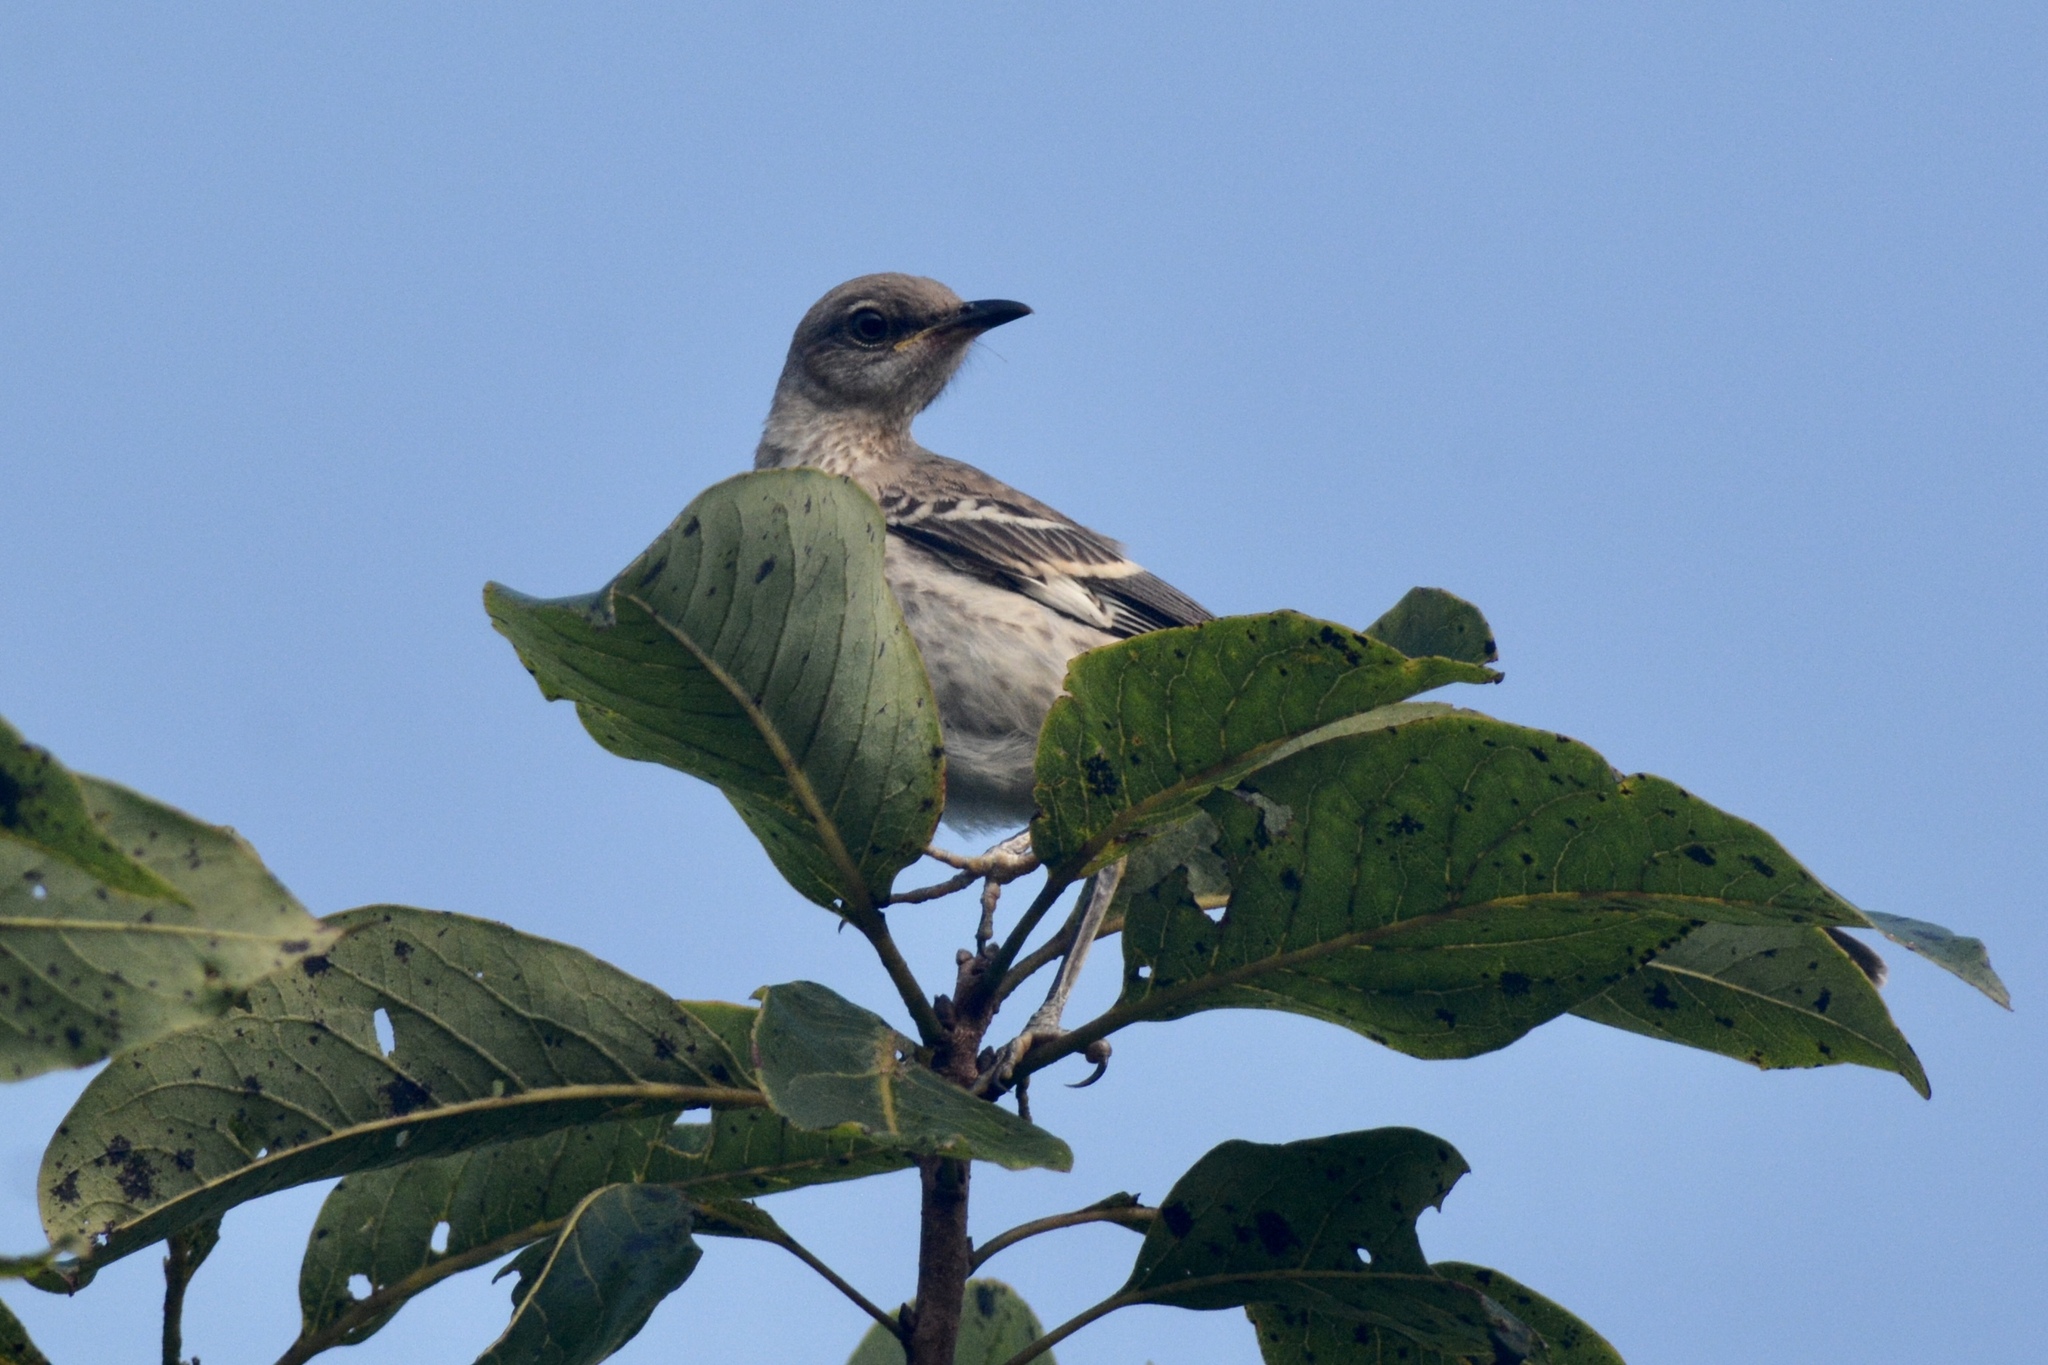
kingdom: Animalia
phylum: Chordata
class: Aves
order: Passeriformes
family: Mimidae
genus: Mimus
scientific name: Mimus polyglottos
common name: Northern mockingbird
